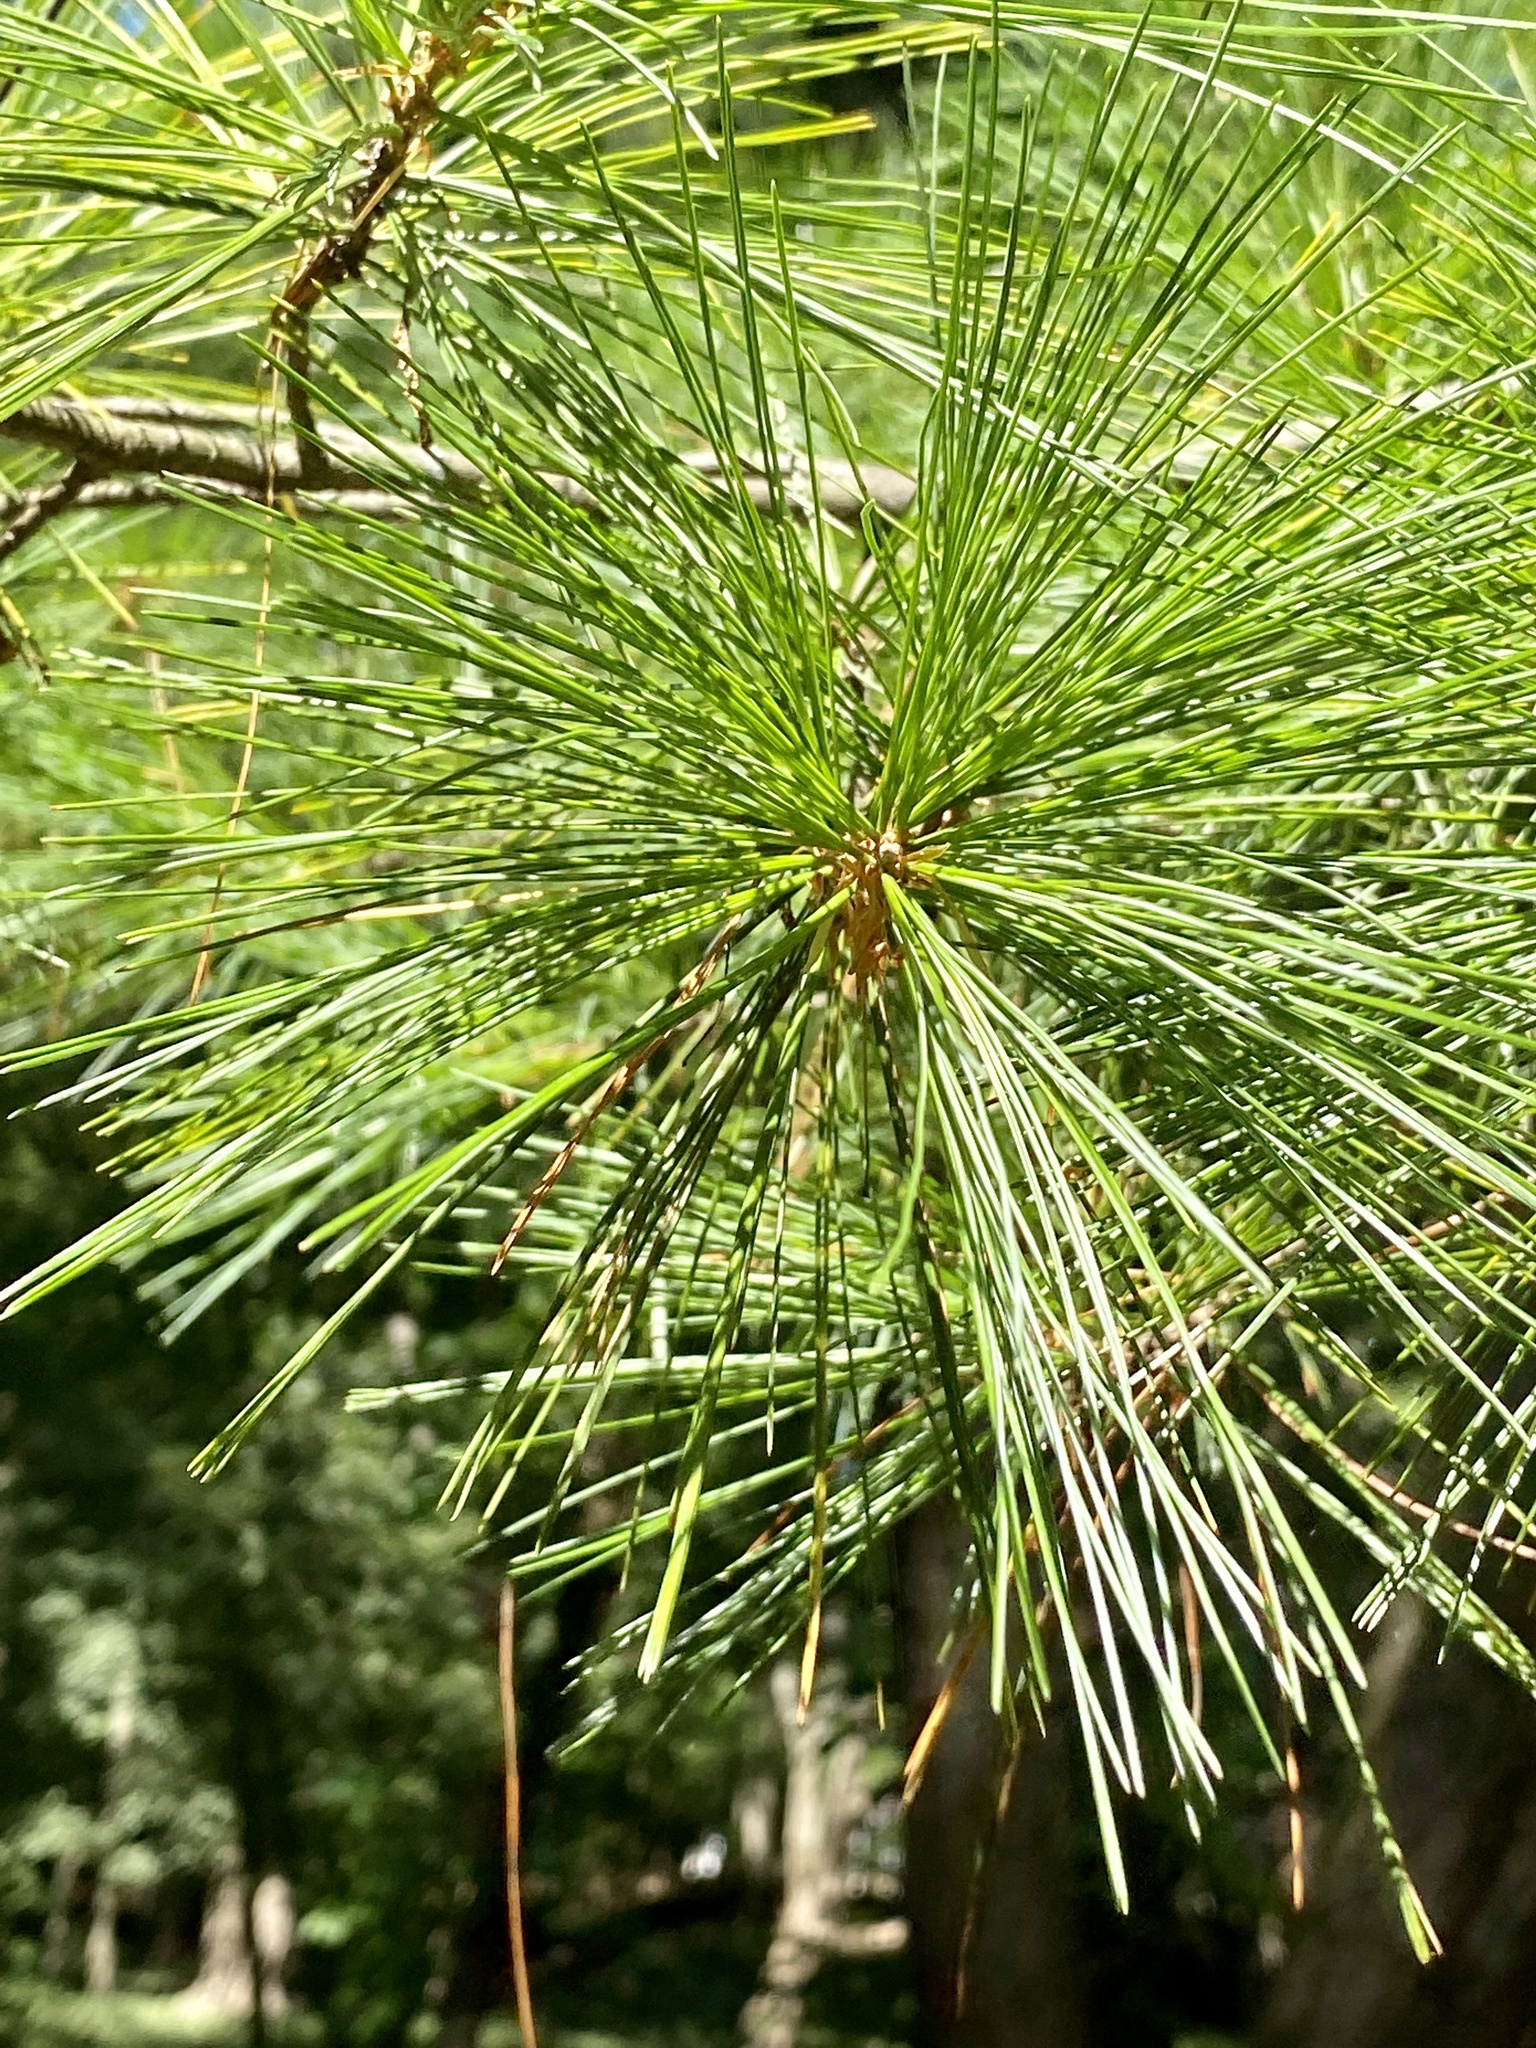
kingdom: Plantae
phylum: Tracheophyta
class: Pinopsida
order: Pinales
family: Pinaceae
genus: Pinus
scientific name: Pinus strobus
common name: Weymouth pine
